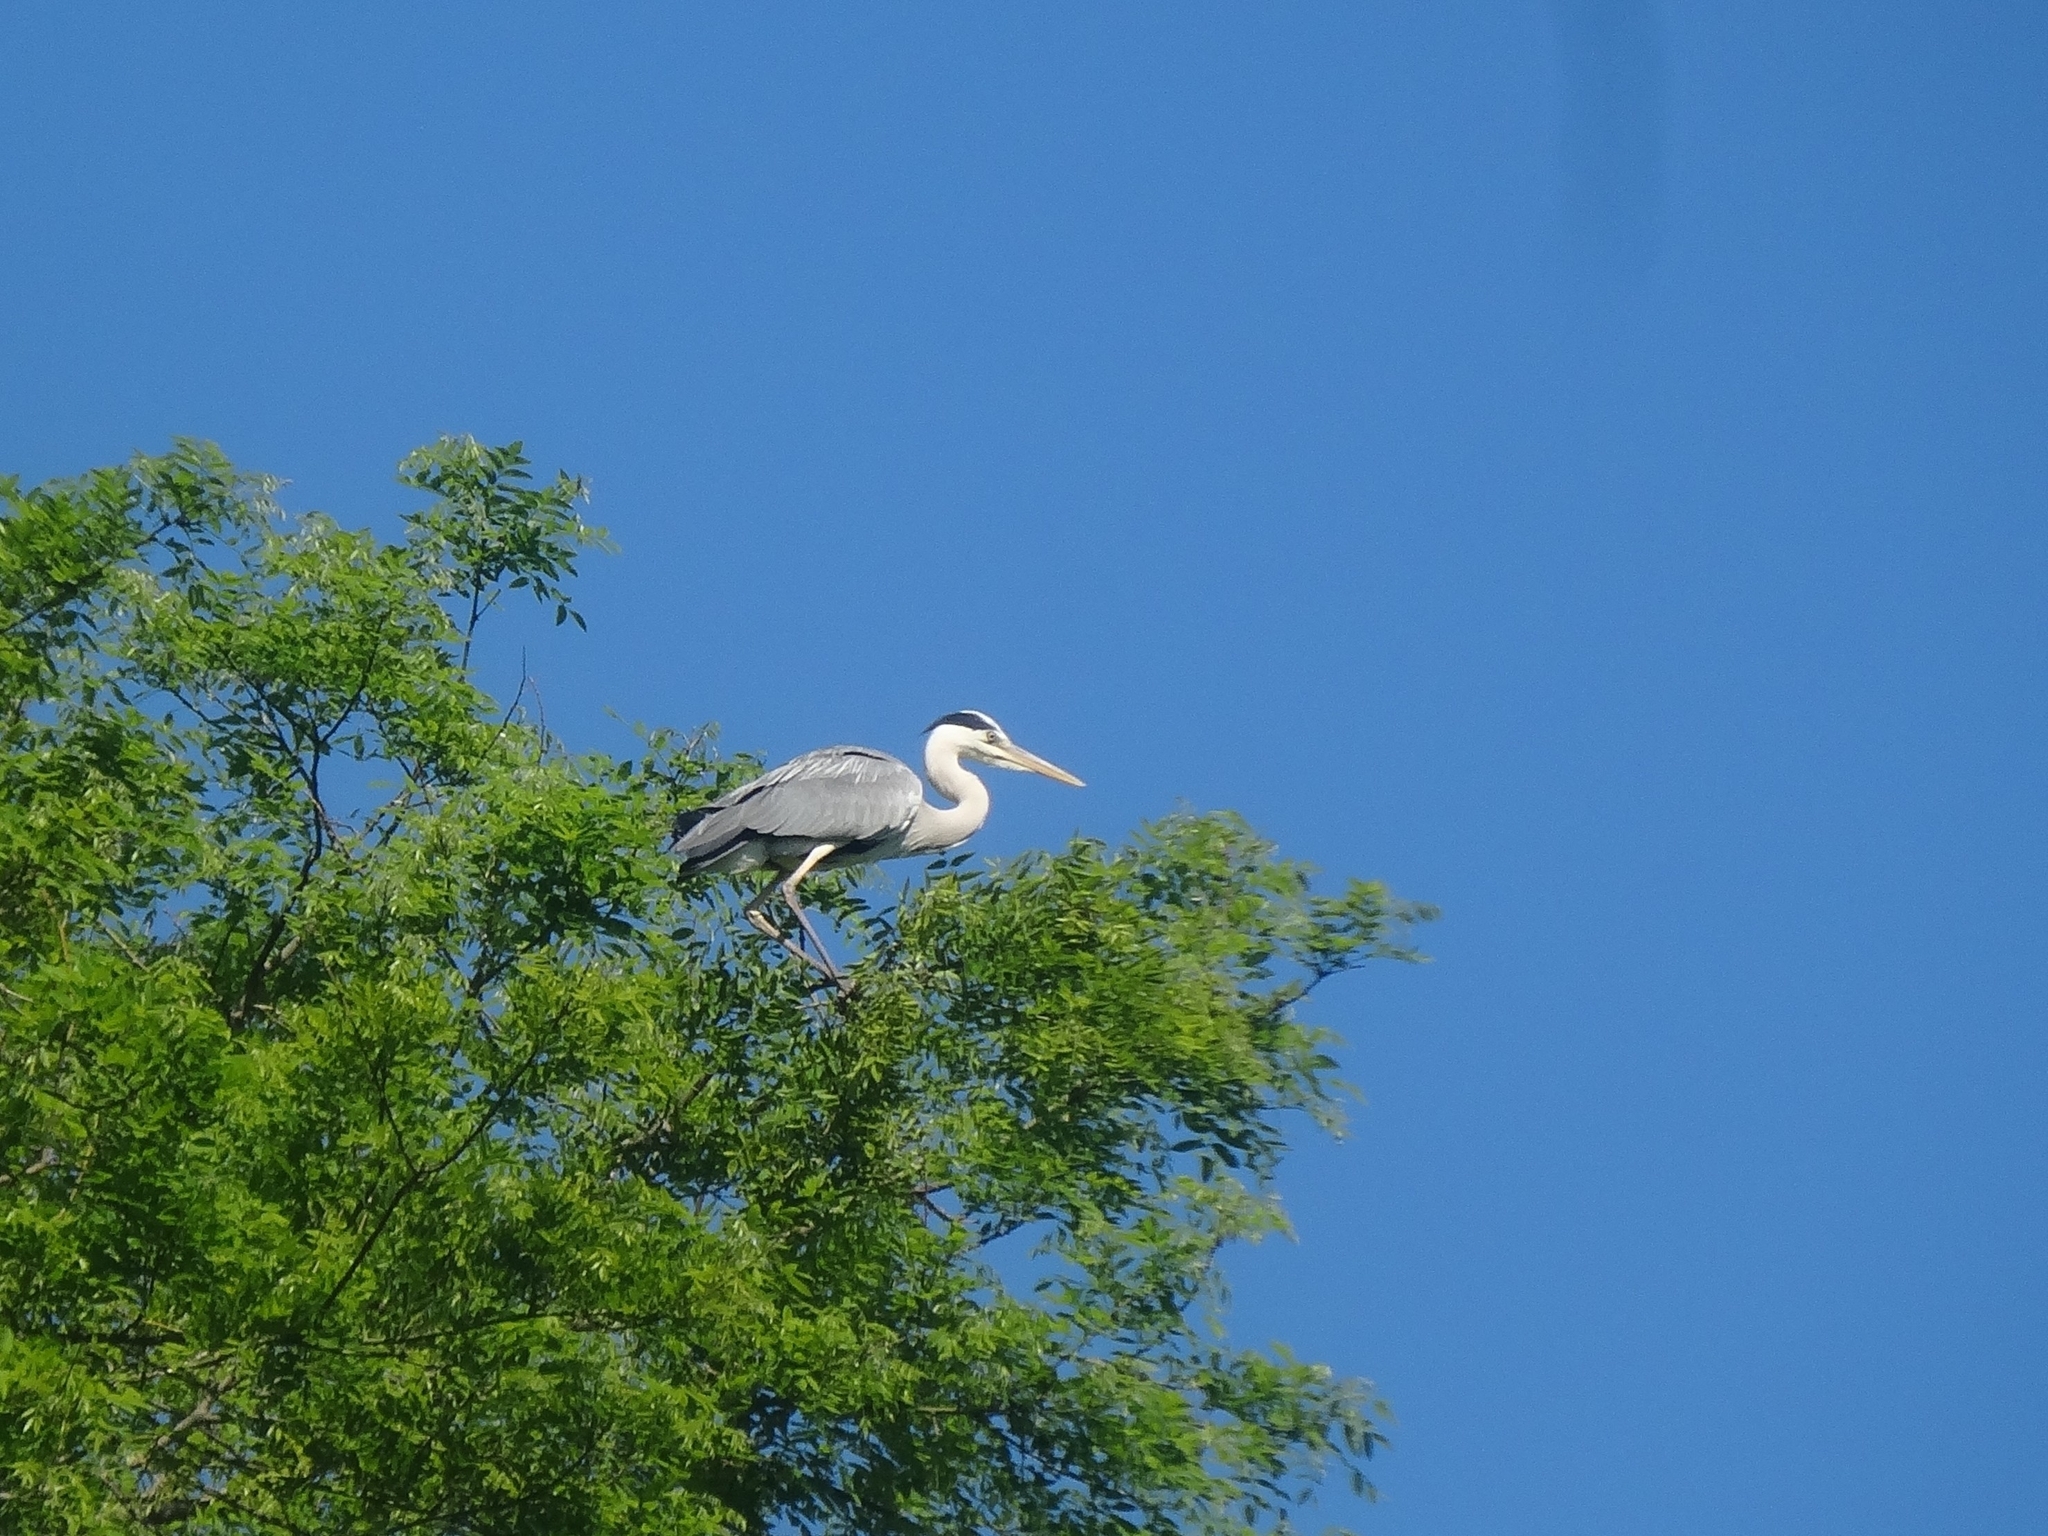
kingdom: Animalia
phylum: Chordata
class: Aves
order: Pelecaniformes
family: Ardeidae
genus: Ardea
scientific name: Ardea cinerea
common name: Grey heron
